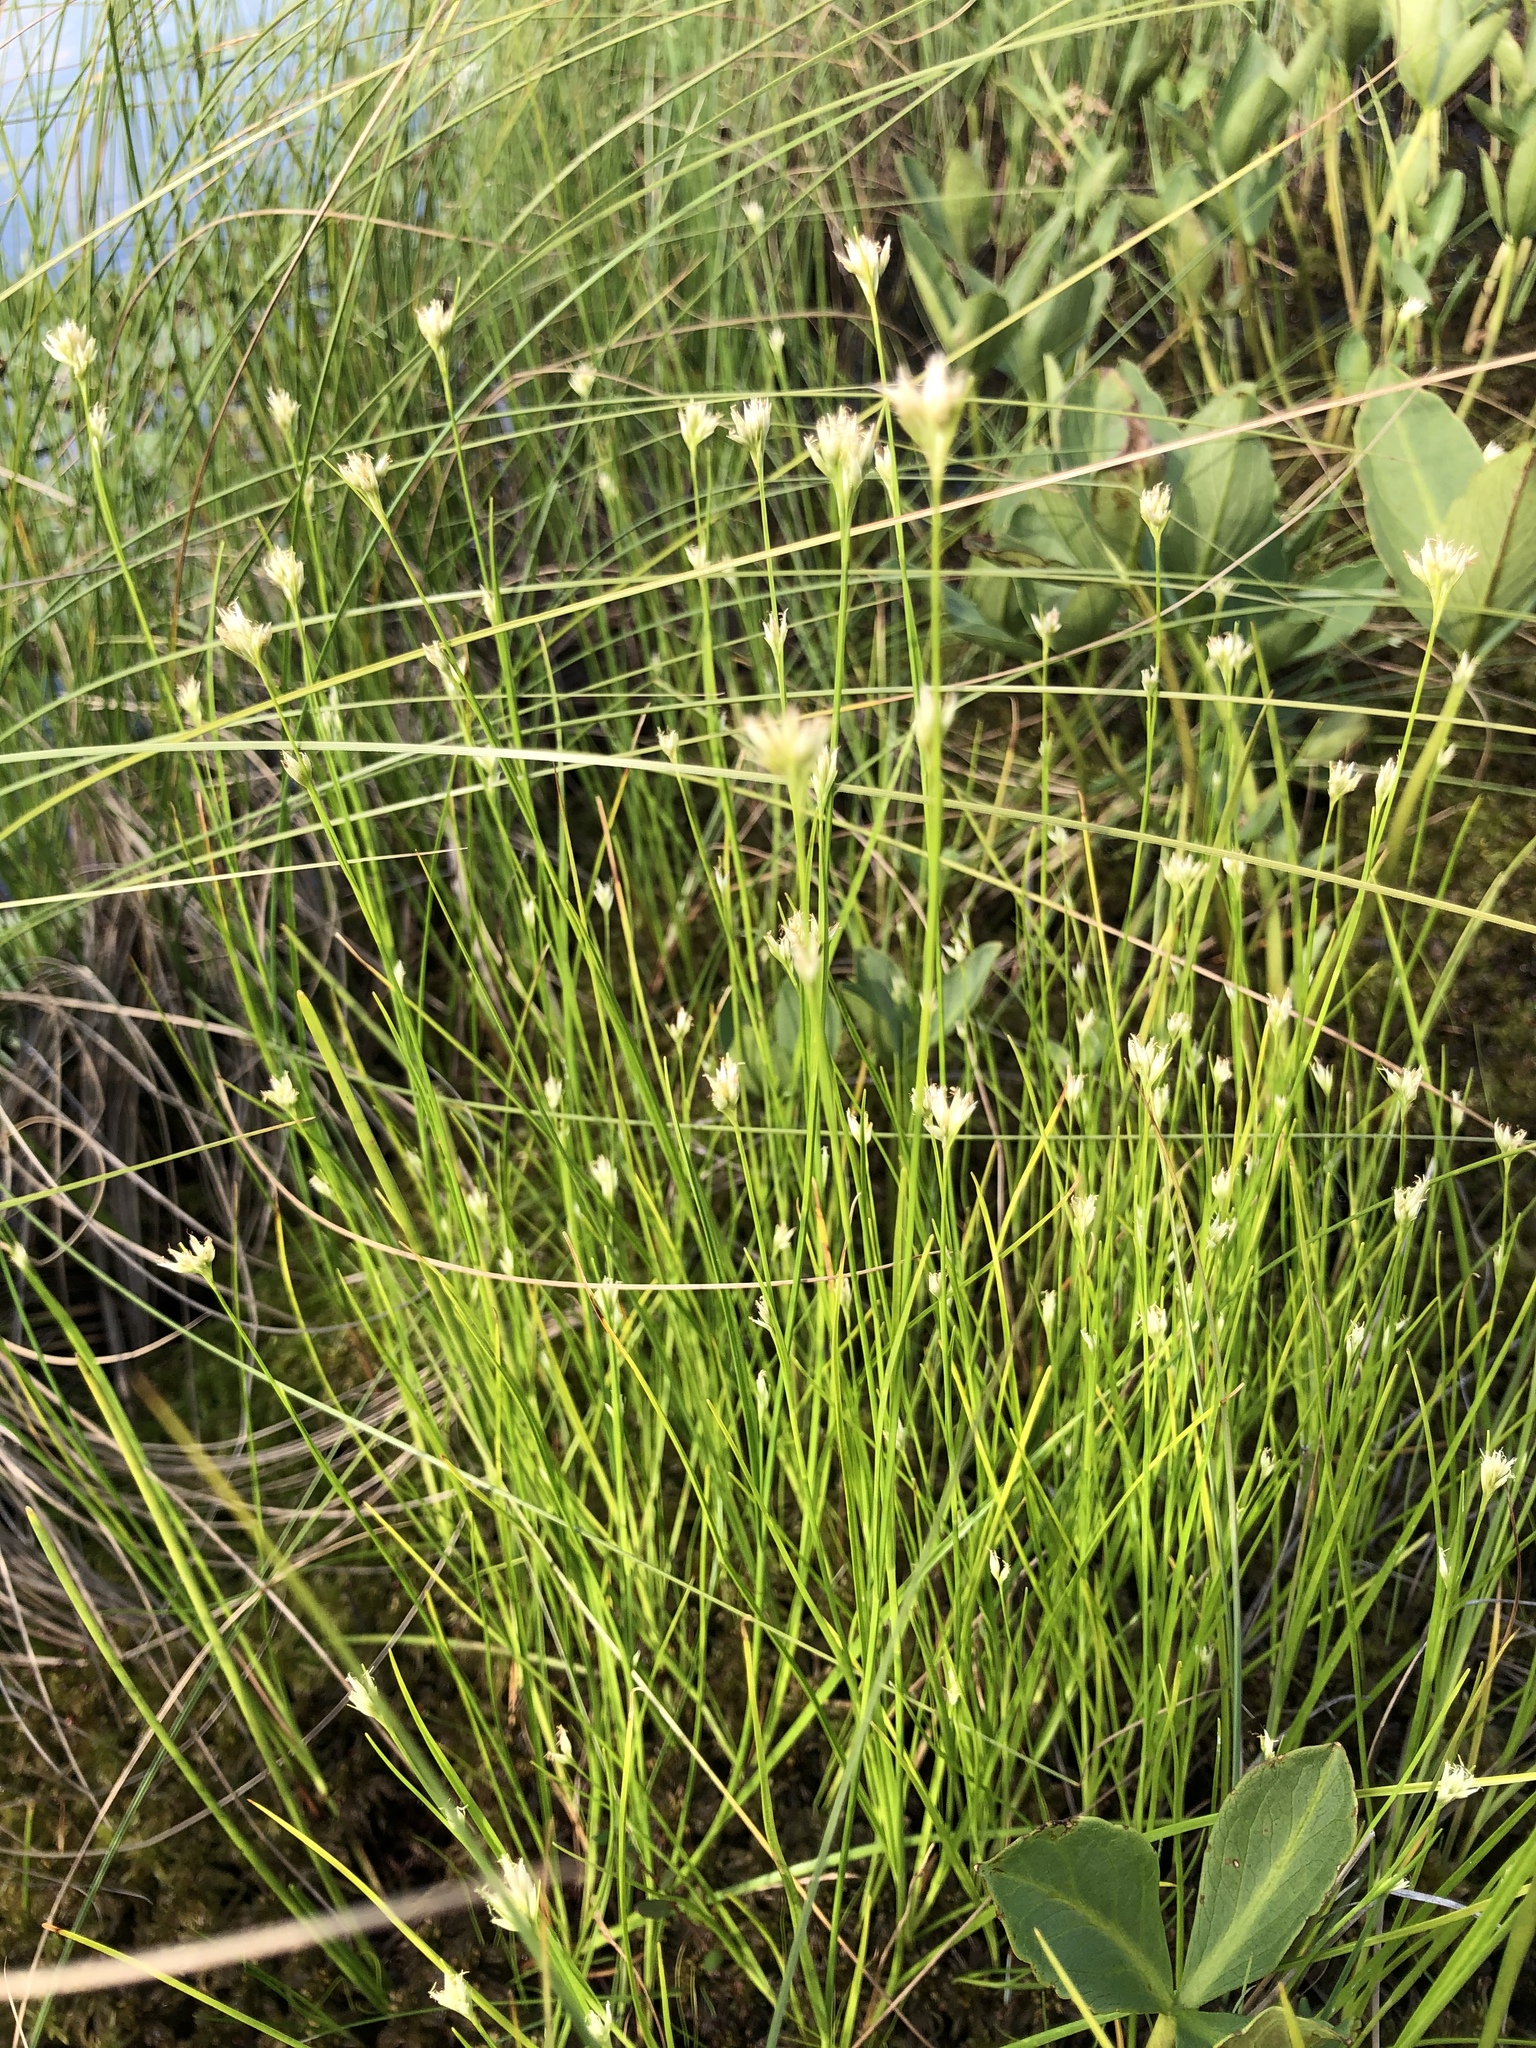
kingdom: Plantae
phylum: Tracheophyta
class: Liliopsida
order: Poales
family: Cyperaceae
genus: Rhynchospora
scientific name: Rhynchospora alba
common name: White beak-sedge
